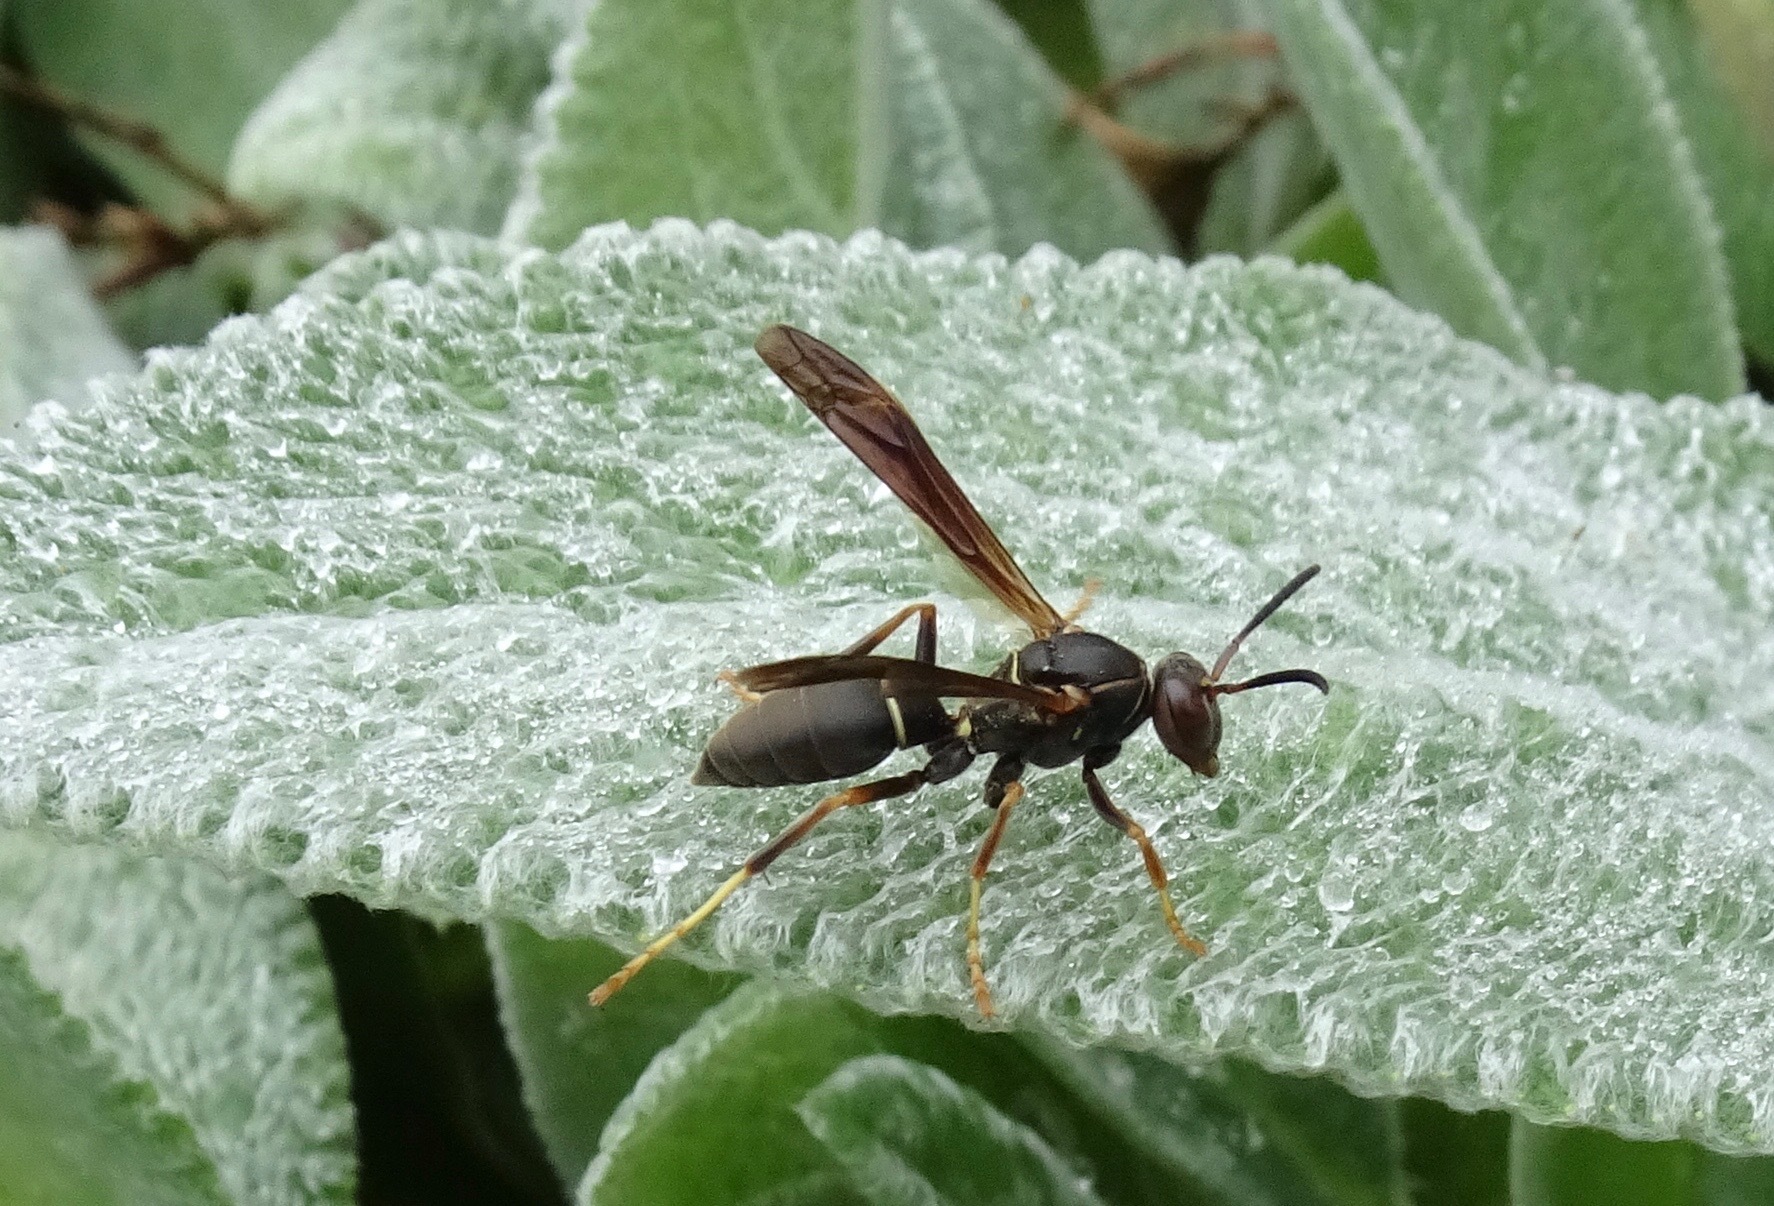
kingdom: Animalia
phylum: Arthropoda
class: Insecta
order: Hymenoptera
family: Eumenidae
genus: Polistes
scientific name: Polistes fuscatus
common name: Dark paper wasp
